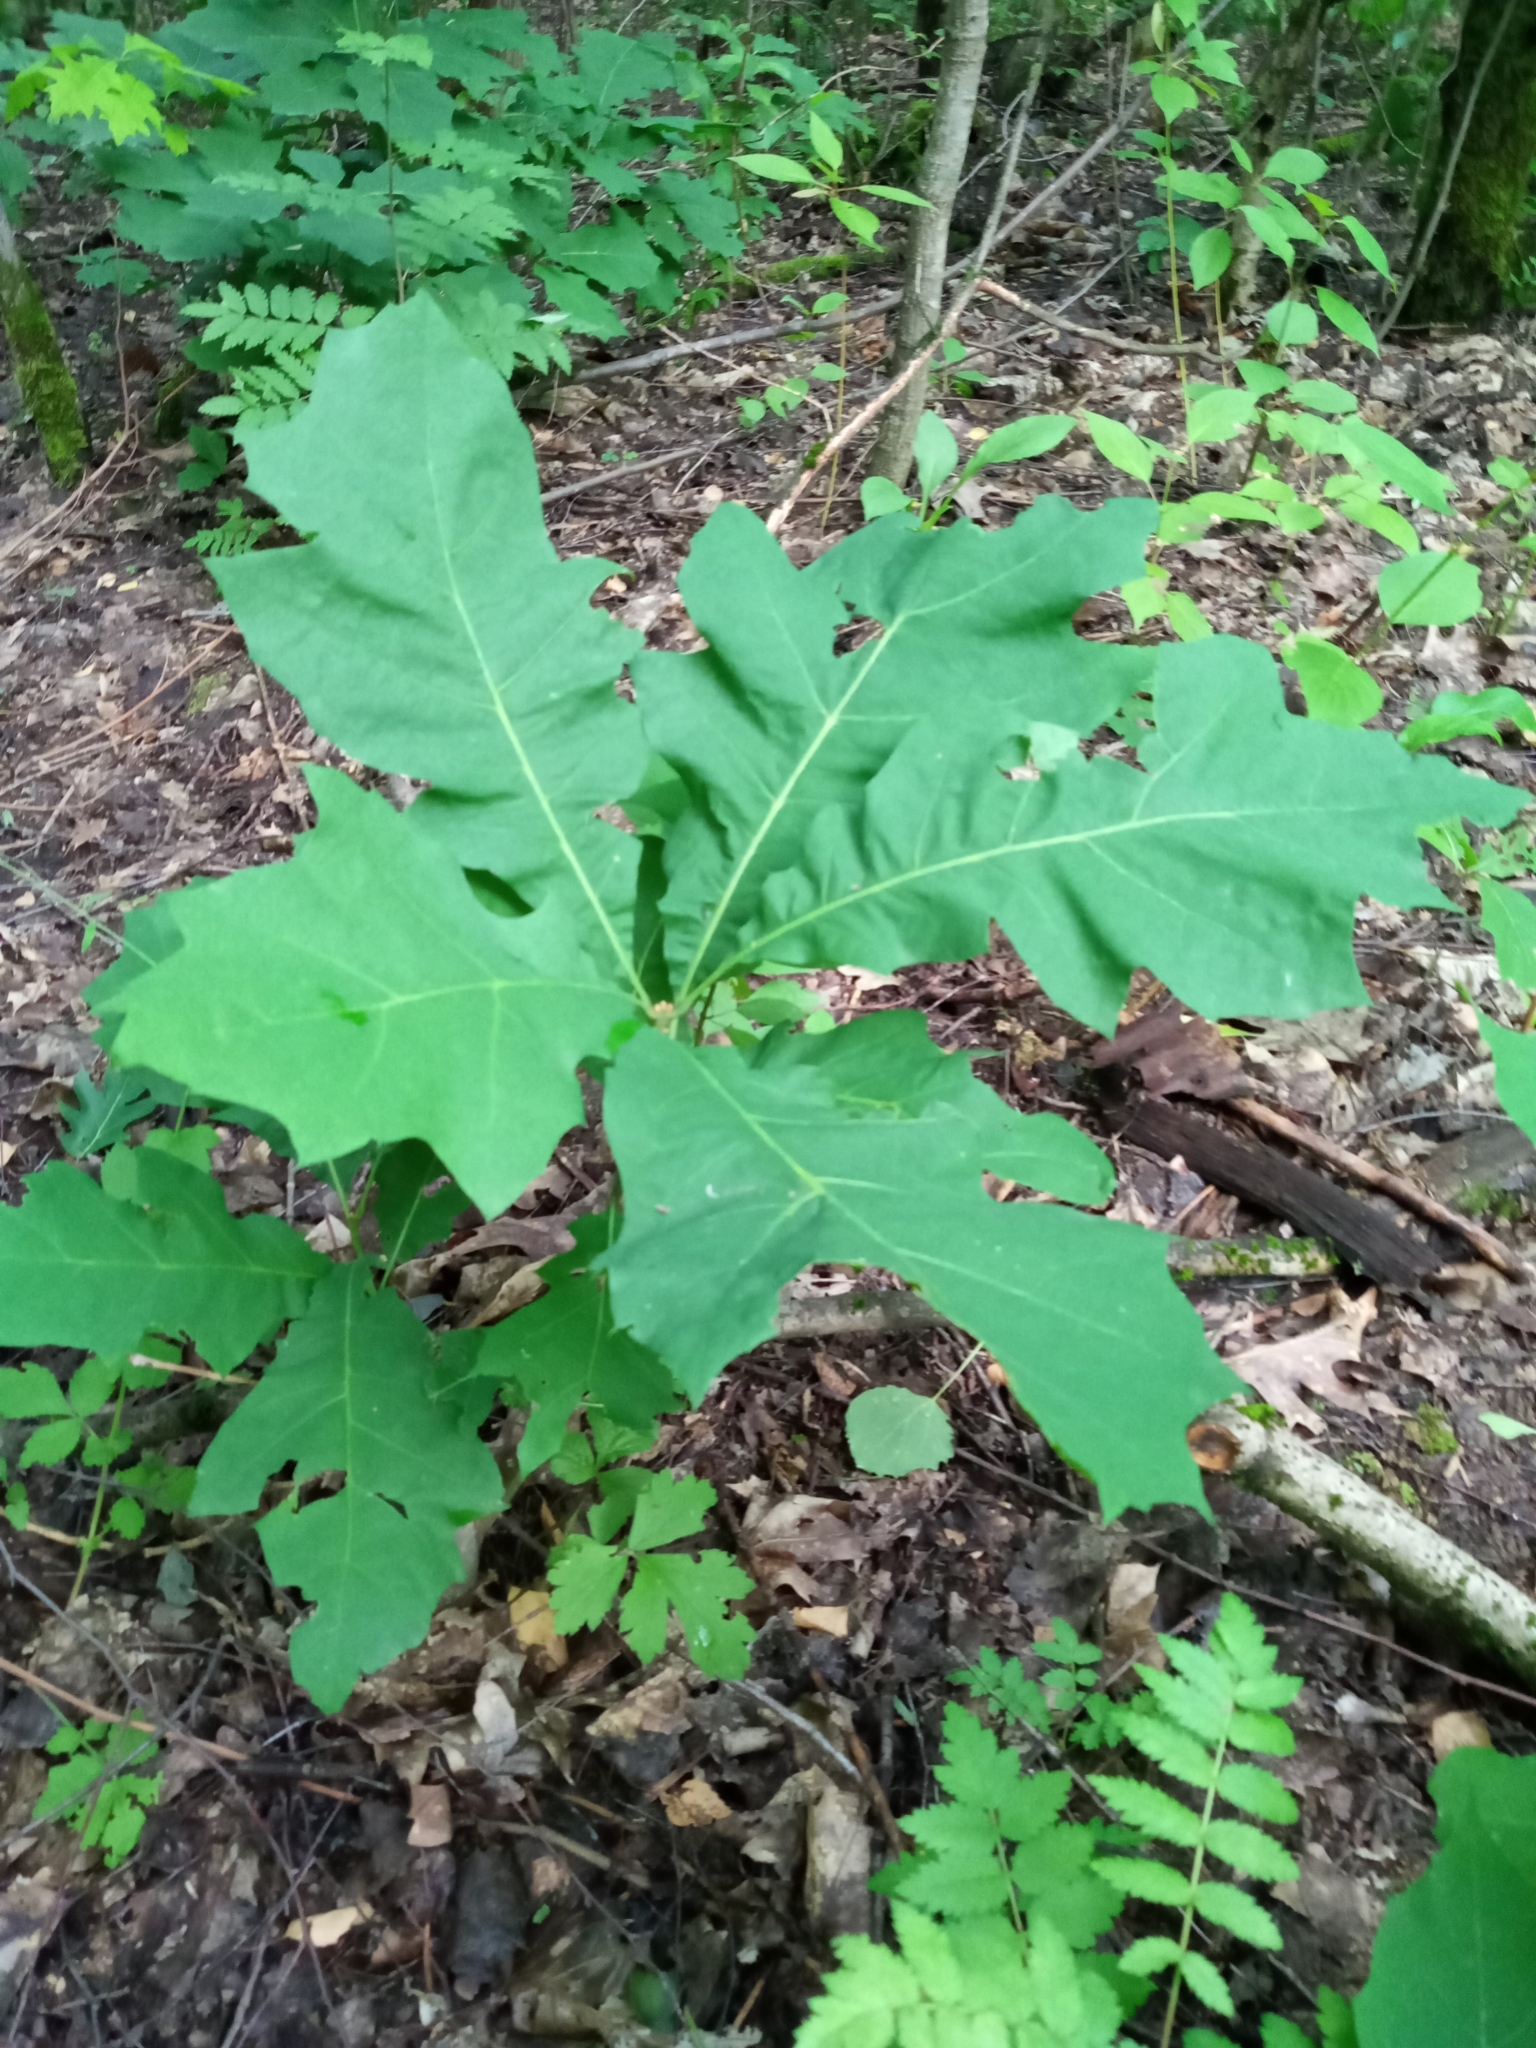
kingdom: Plantae
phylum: Tracheophyta
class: Magnoliopsida
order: Fagales
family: Fagaceae
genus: Quercus
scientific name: Quercus rubra
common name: Red oak
